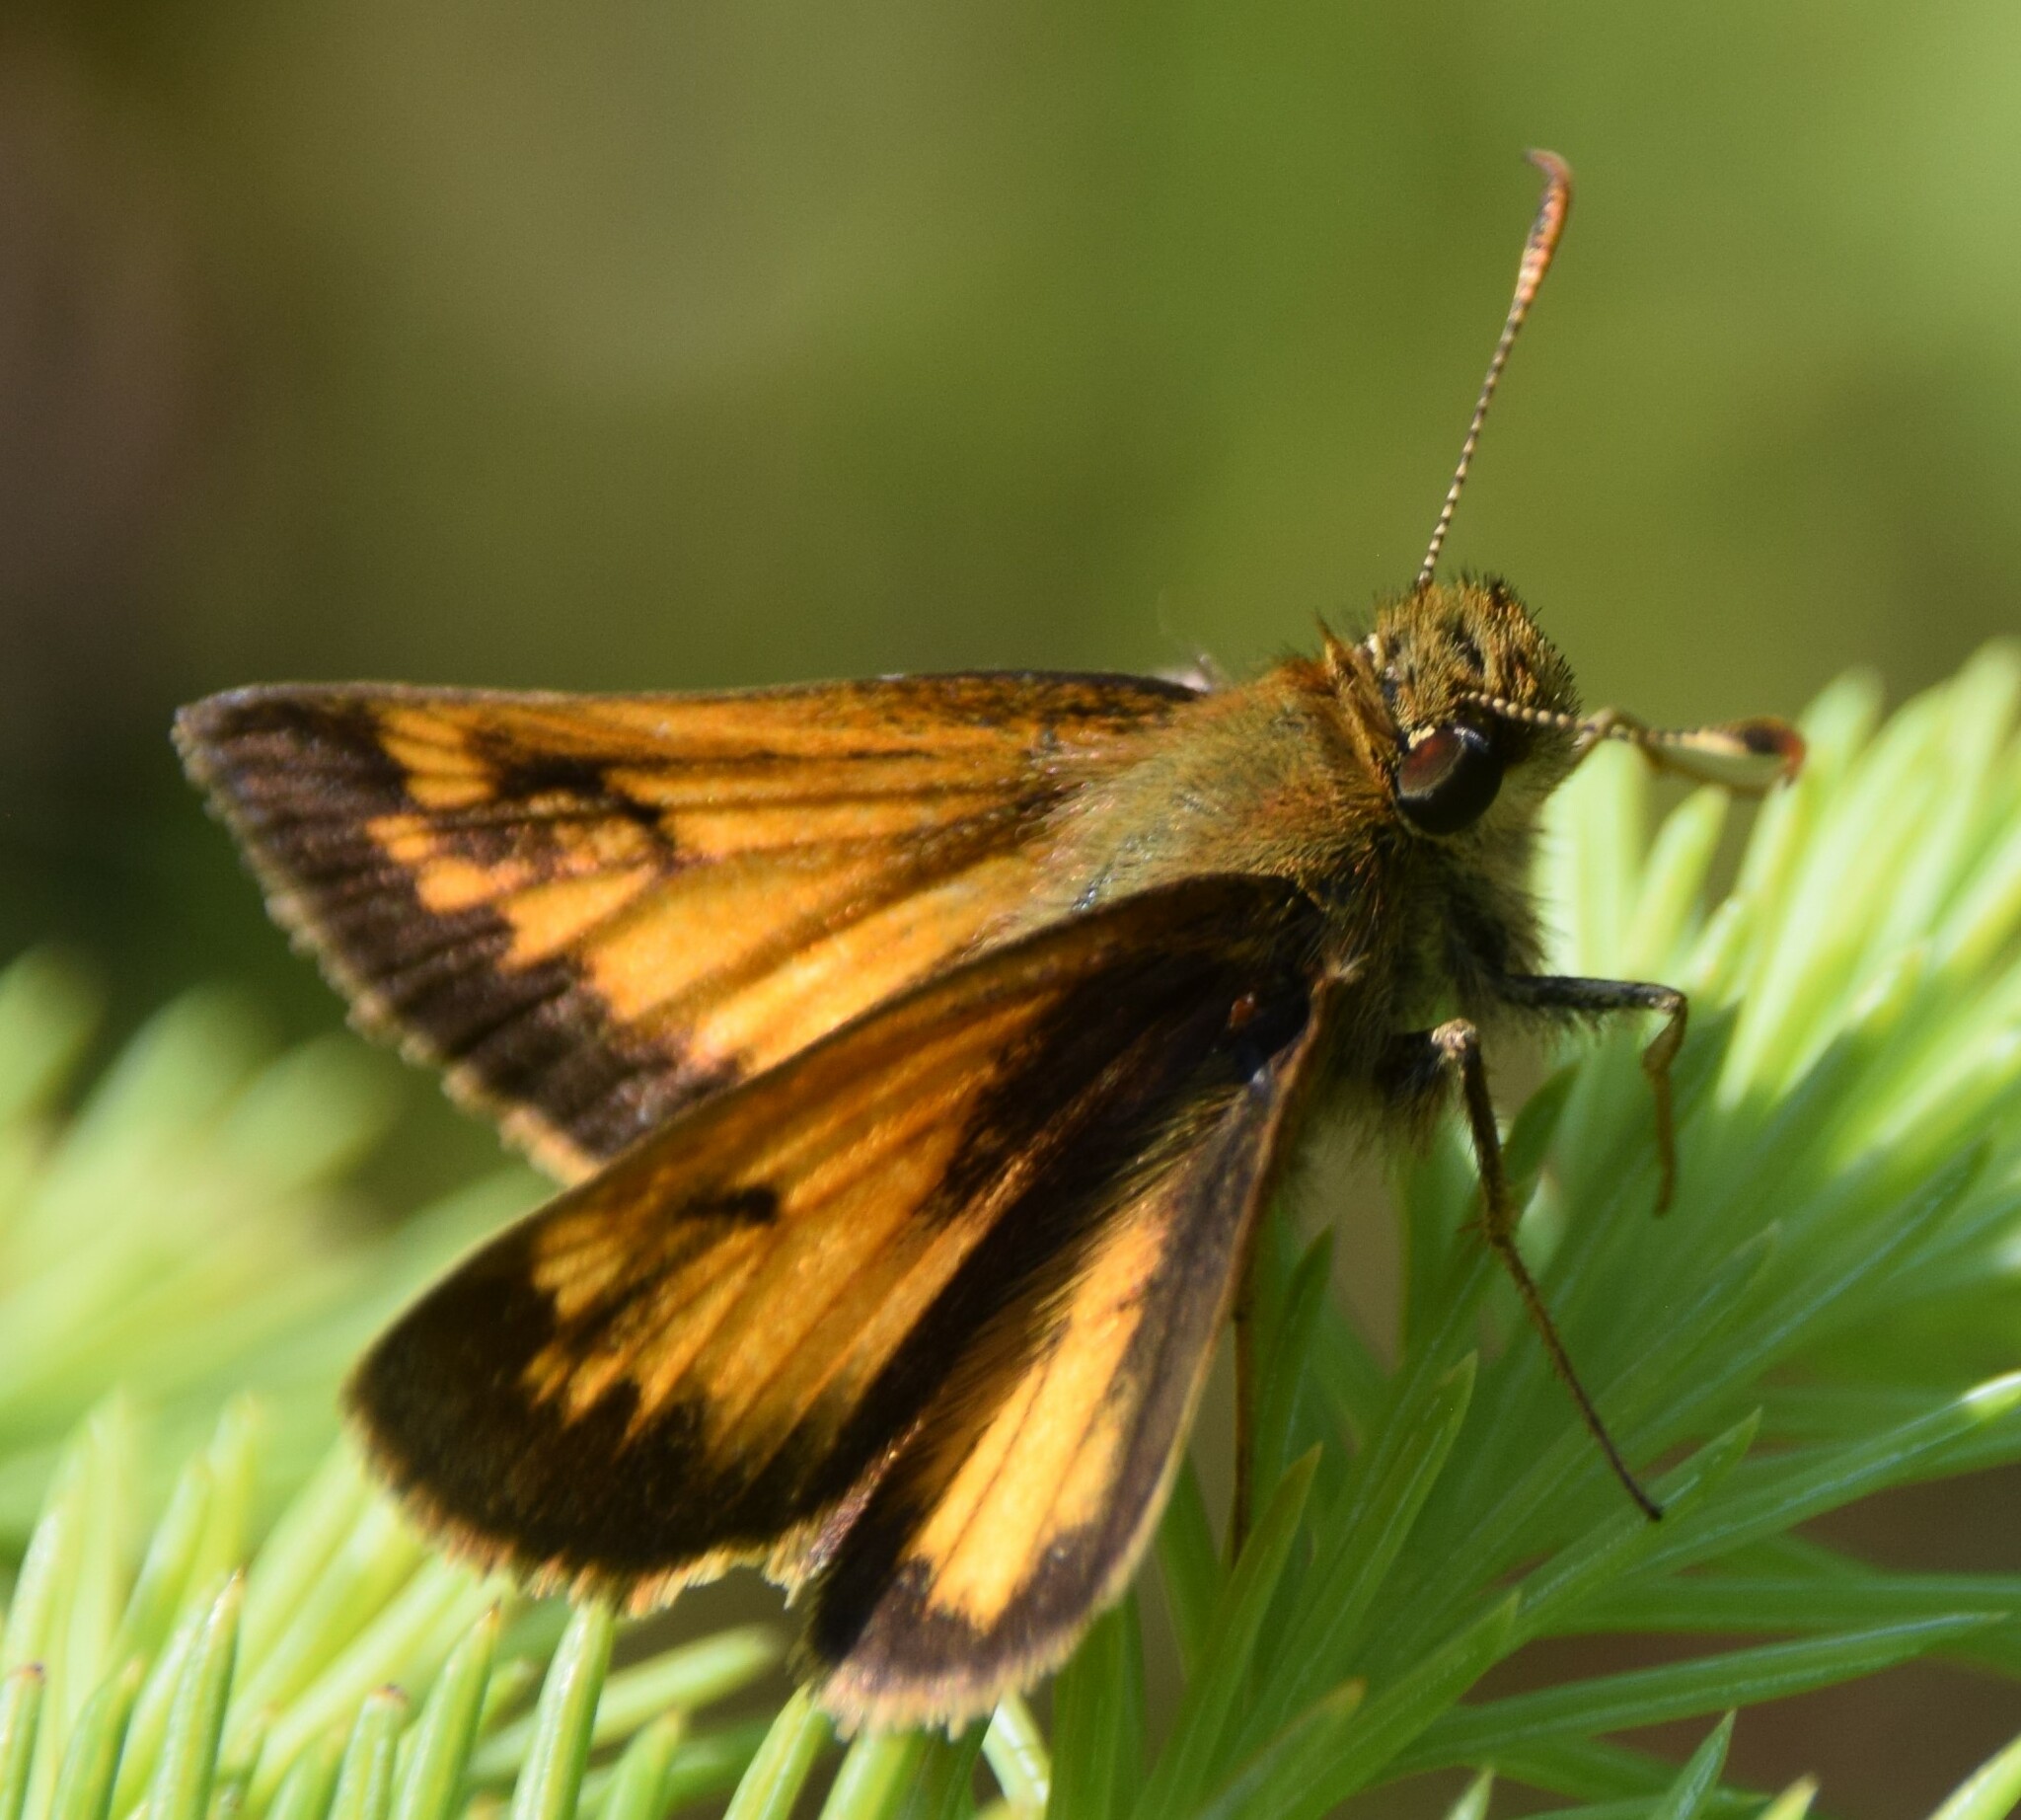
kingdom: Animalia
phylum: Arthropoda
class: Insecta
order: Lepidoptera
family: Hesperiidae
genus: Lon
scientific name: Lon hobomok
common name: Hobomok skipper
